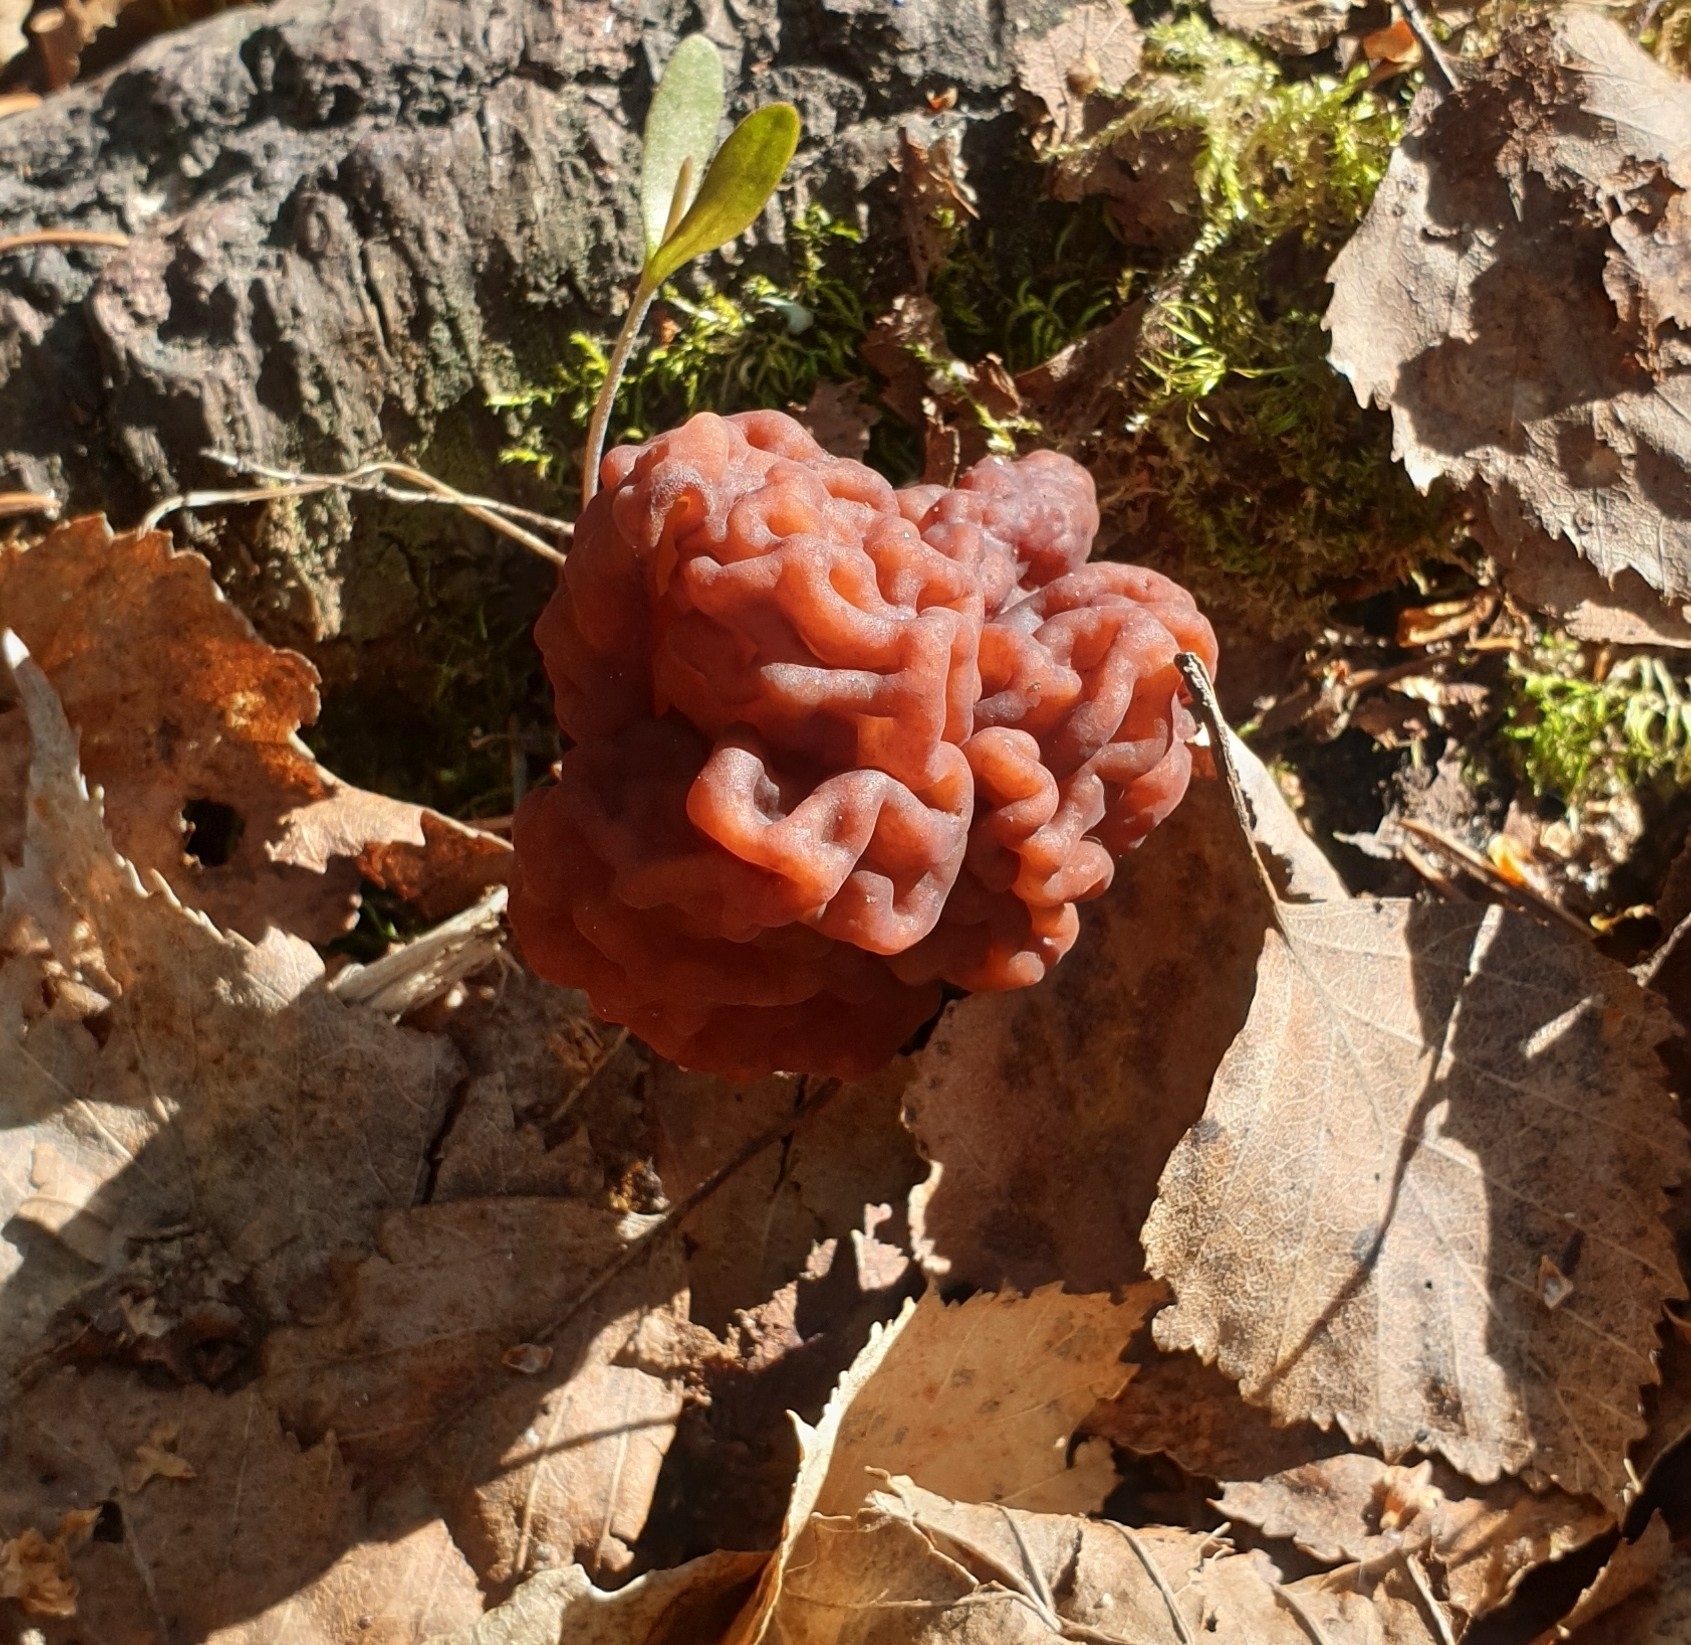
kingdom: Fungi
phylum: Ascomycota
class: Pezizomycetes
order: Pezizales
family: Discinaceae
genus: Gyromitra
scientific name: Gyromitra esculenta
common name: False morel
